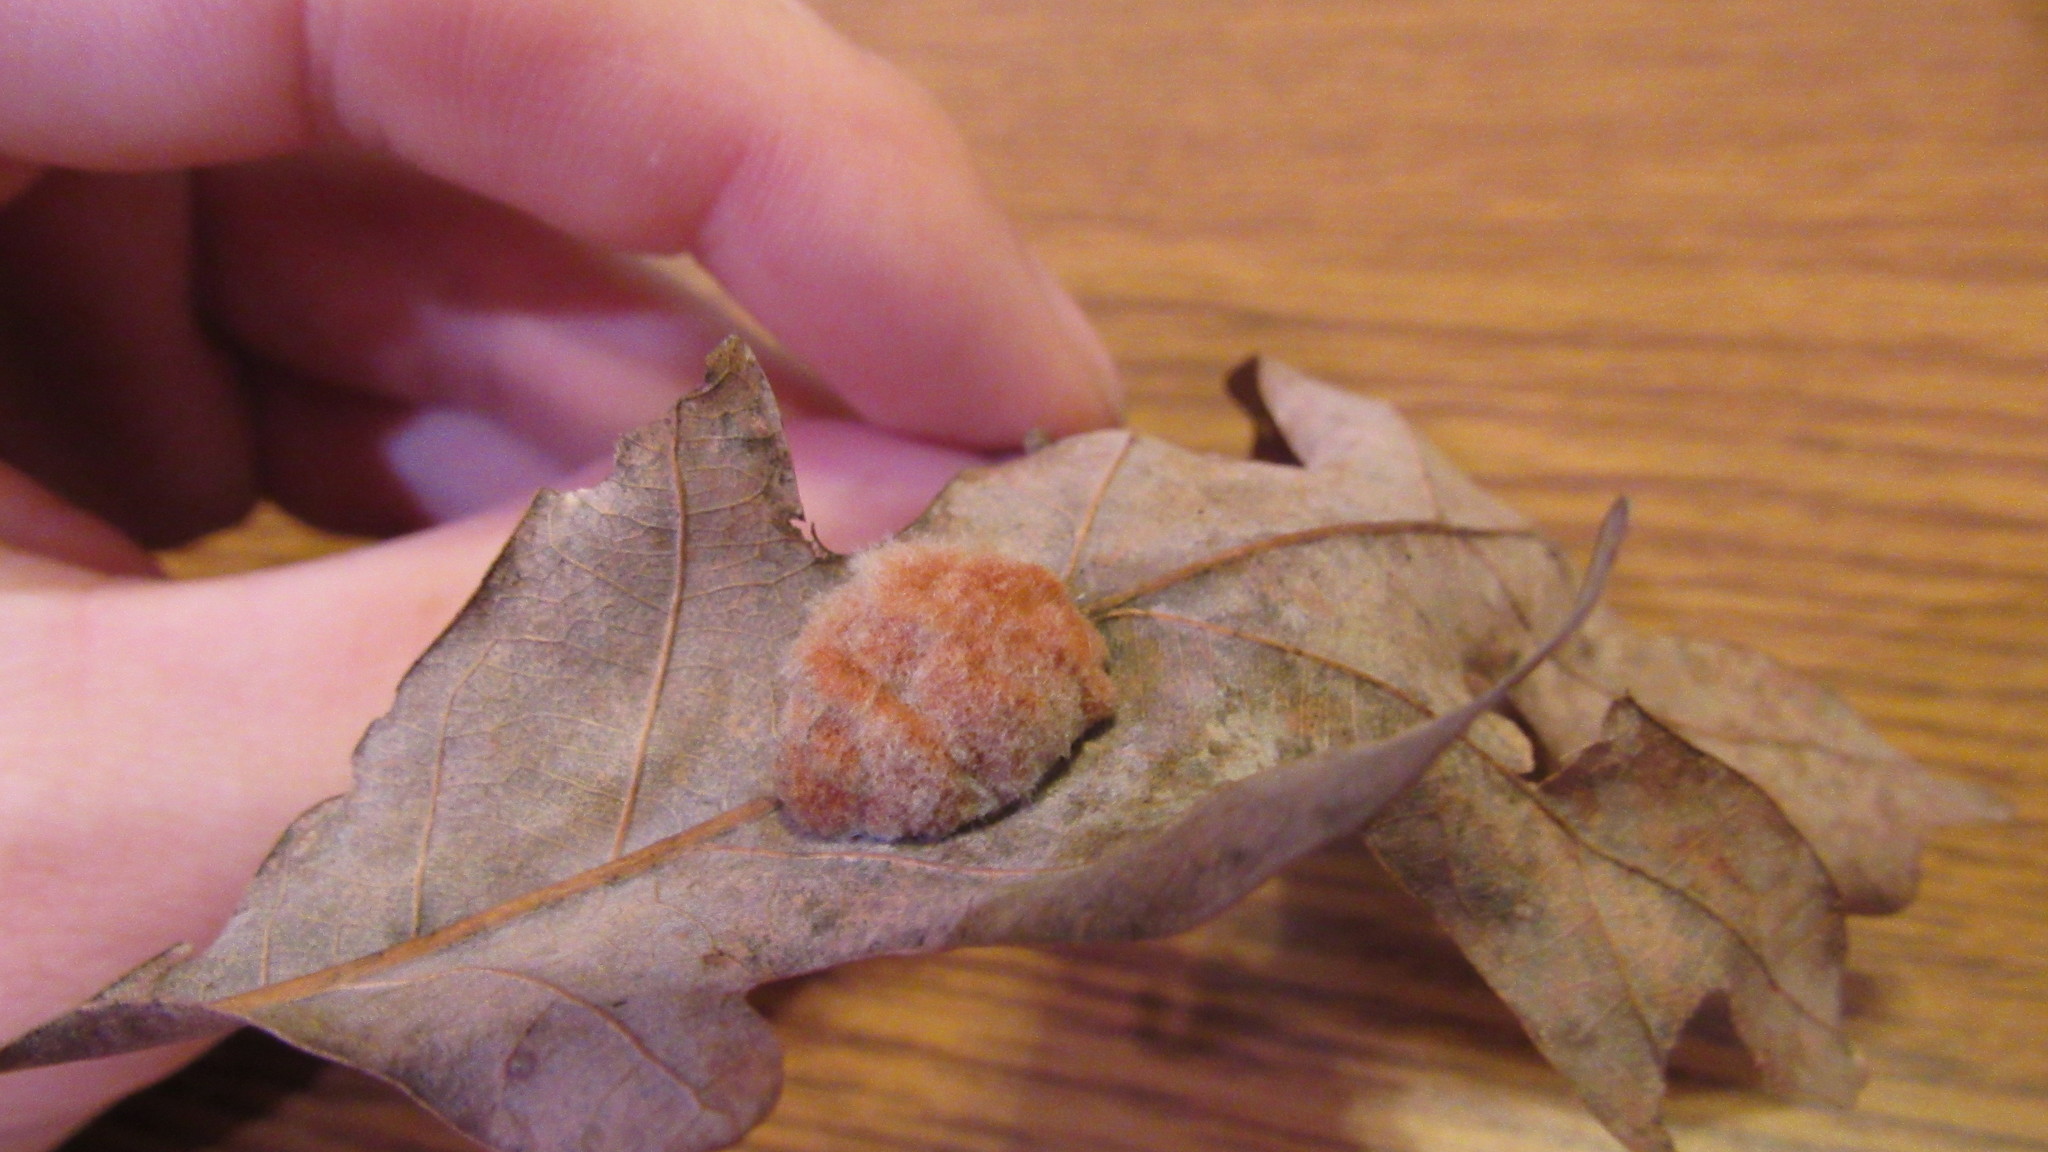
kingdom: Animalia
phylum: Arthropoda
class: Insecta
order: Hymenoptera
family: Cynipidae
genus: Andricus
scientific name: Andricus quercusflocci
